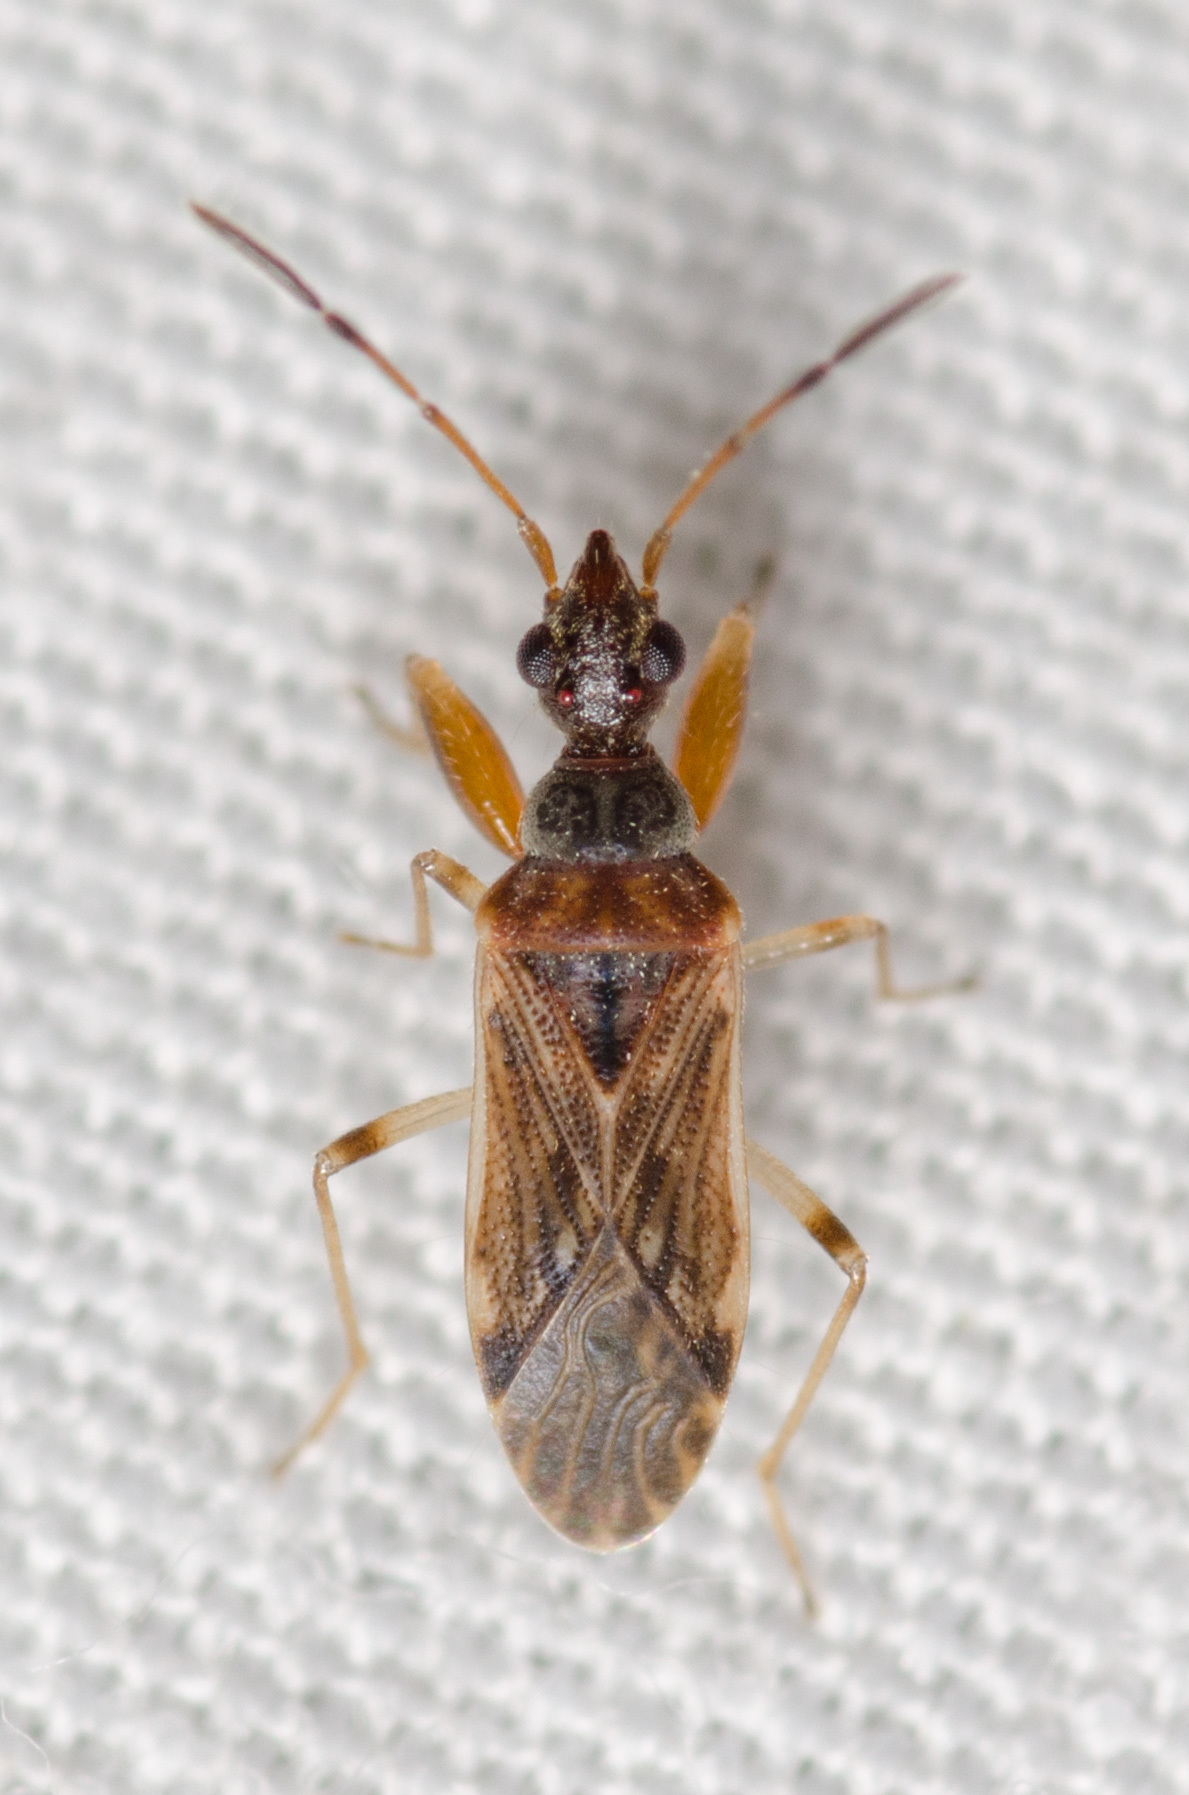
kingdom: Animalia
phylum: Arthropoda
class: Insecta
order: Hemiptera
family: Rhyparochromidae
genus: Heraeus
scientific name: Heraeus plebejus
